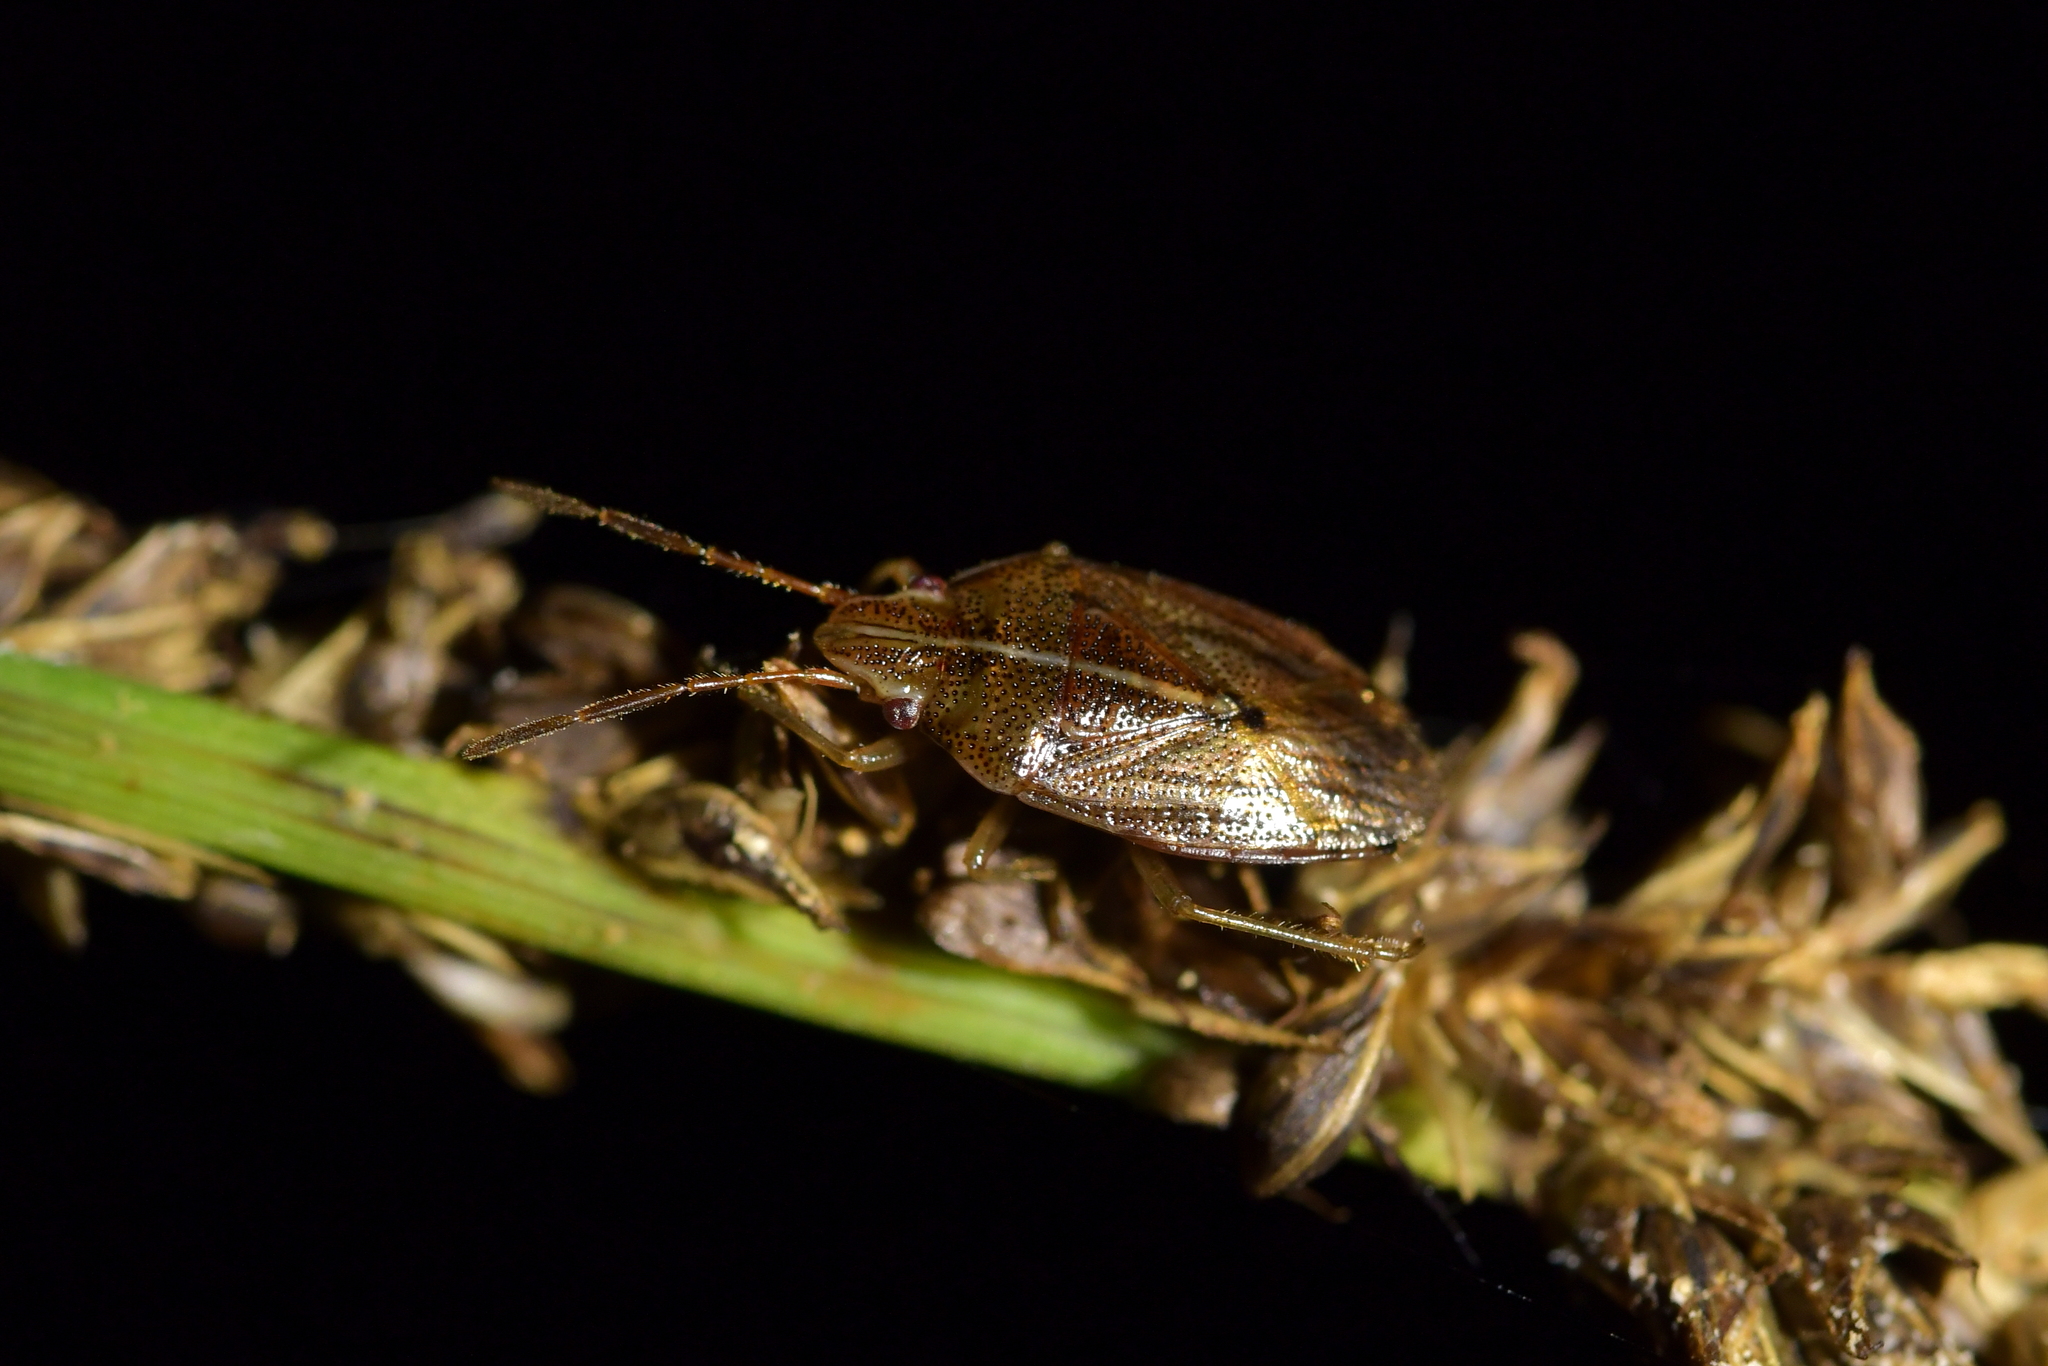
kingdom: Animalia
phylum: Arthropoda
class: Insecta
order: Hemiptera
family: Acanthosomatidae
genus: Rhopalimorpha
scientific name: Rhopalimorpha lineolaris
